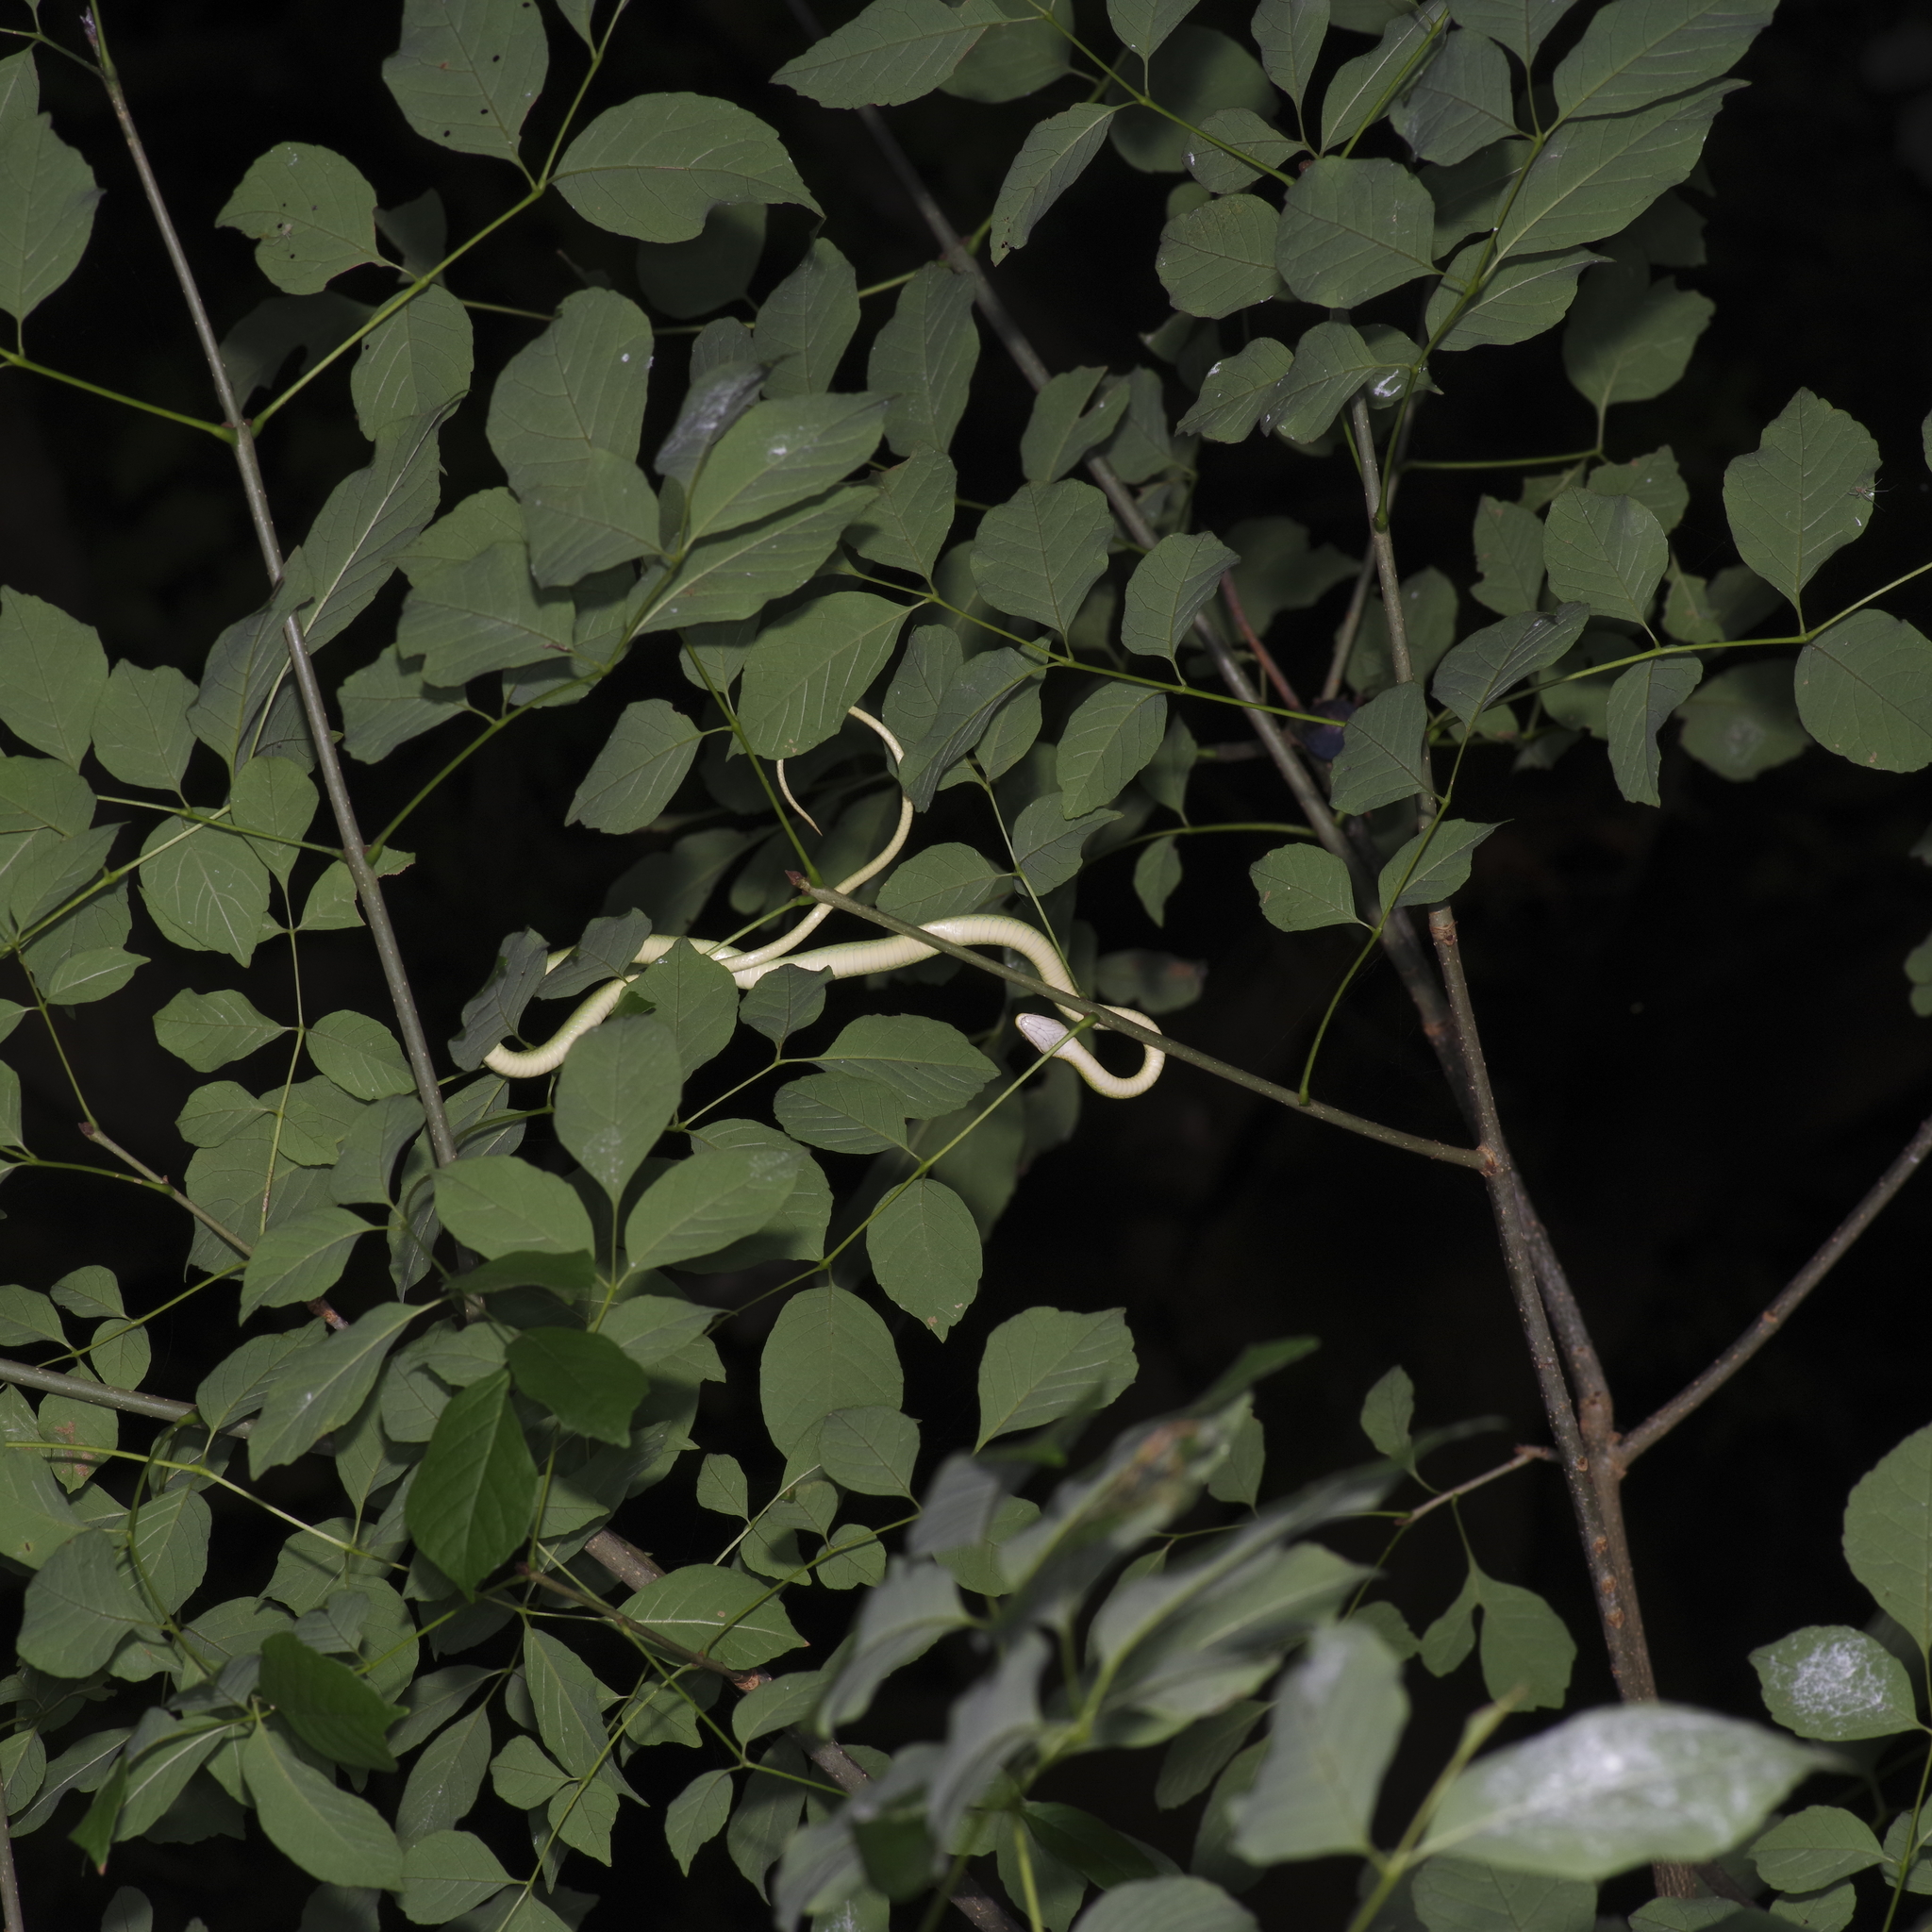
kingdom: Animalia
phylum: Chordata
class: Squamata
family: Colubridae
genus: Opheodrys
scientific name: Opheodrys aestivus
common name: Rough greensnake
